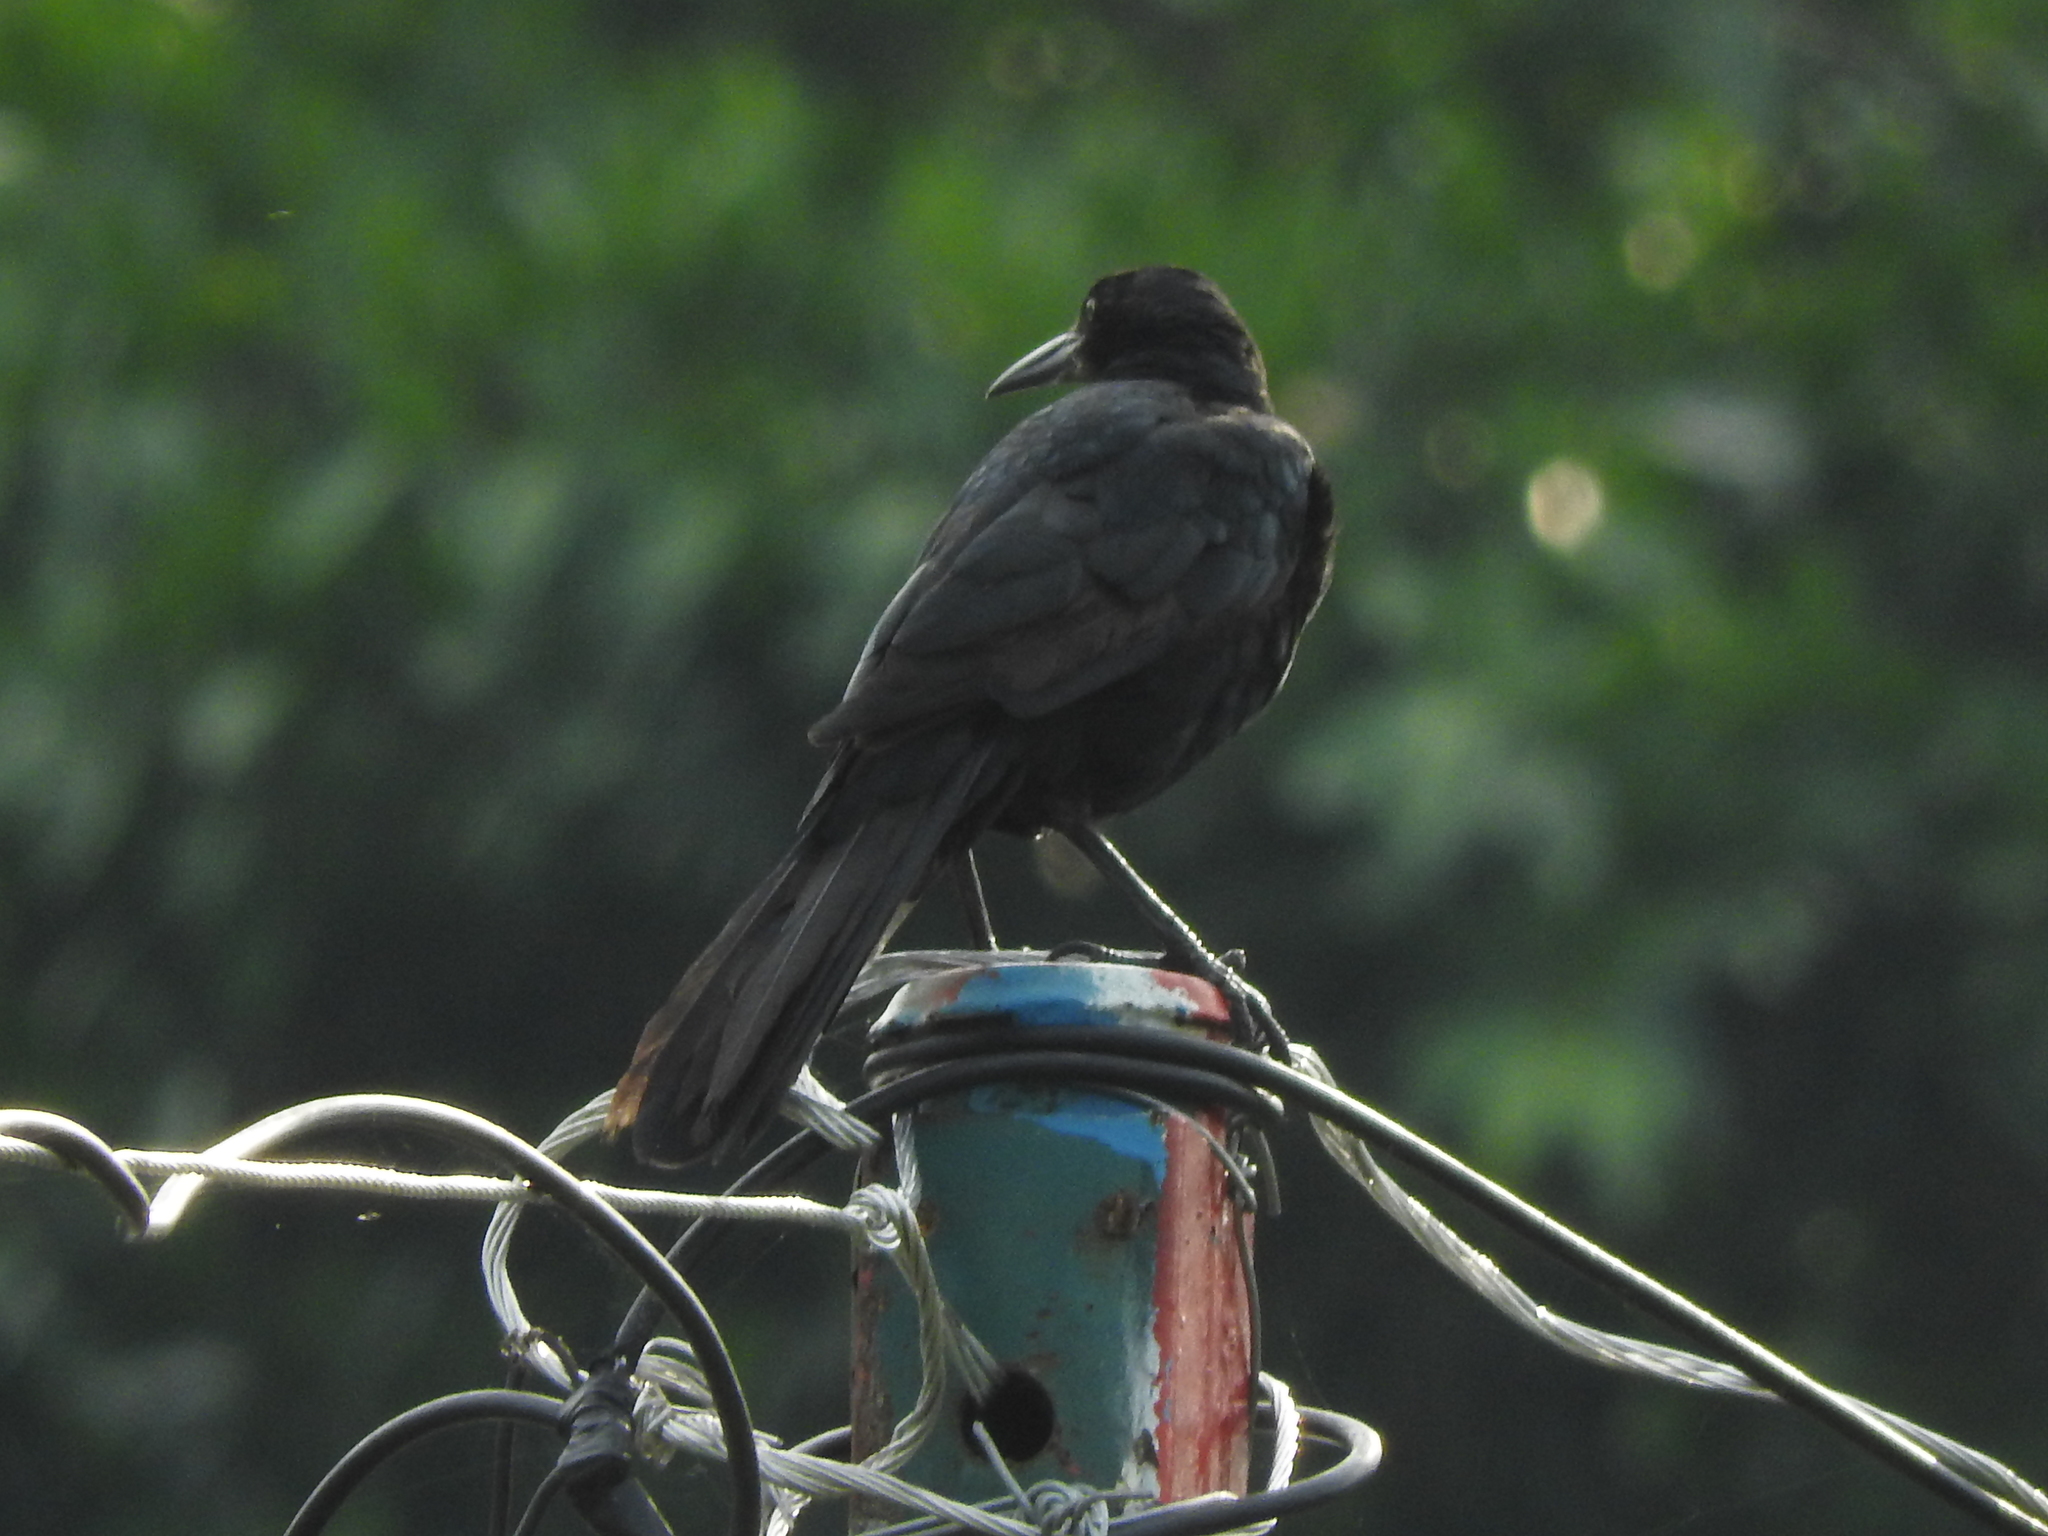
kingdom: Animalia
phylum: Chordata
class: Aves
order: Passeriformes
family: Icteridae
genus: Quiscalus
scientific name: Quiscalus mexicanus
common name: Great-tailed grackle
